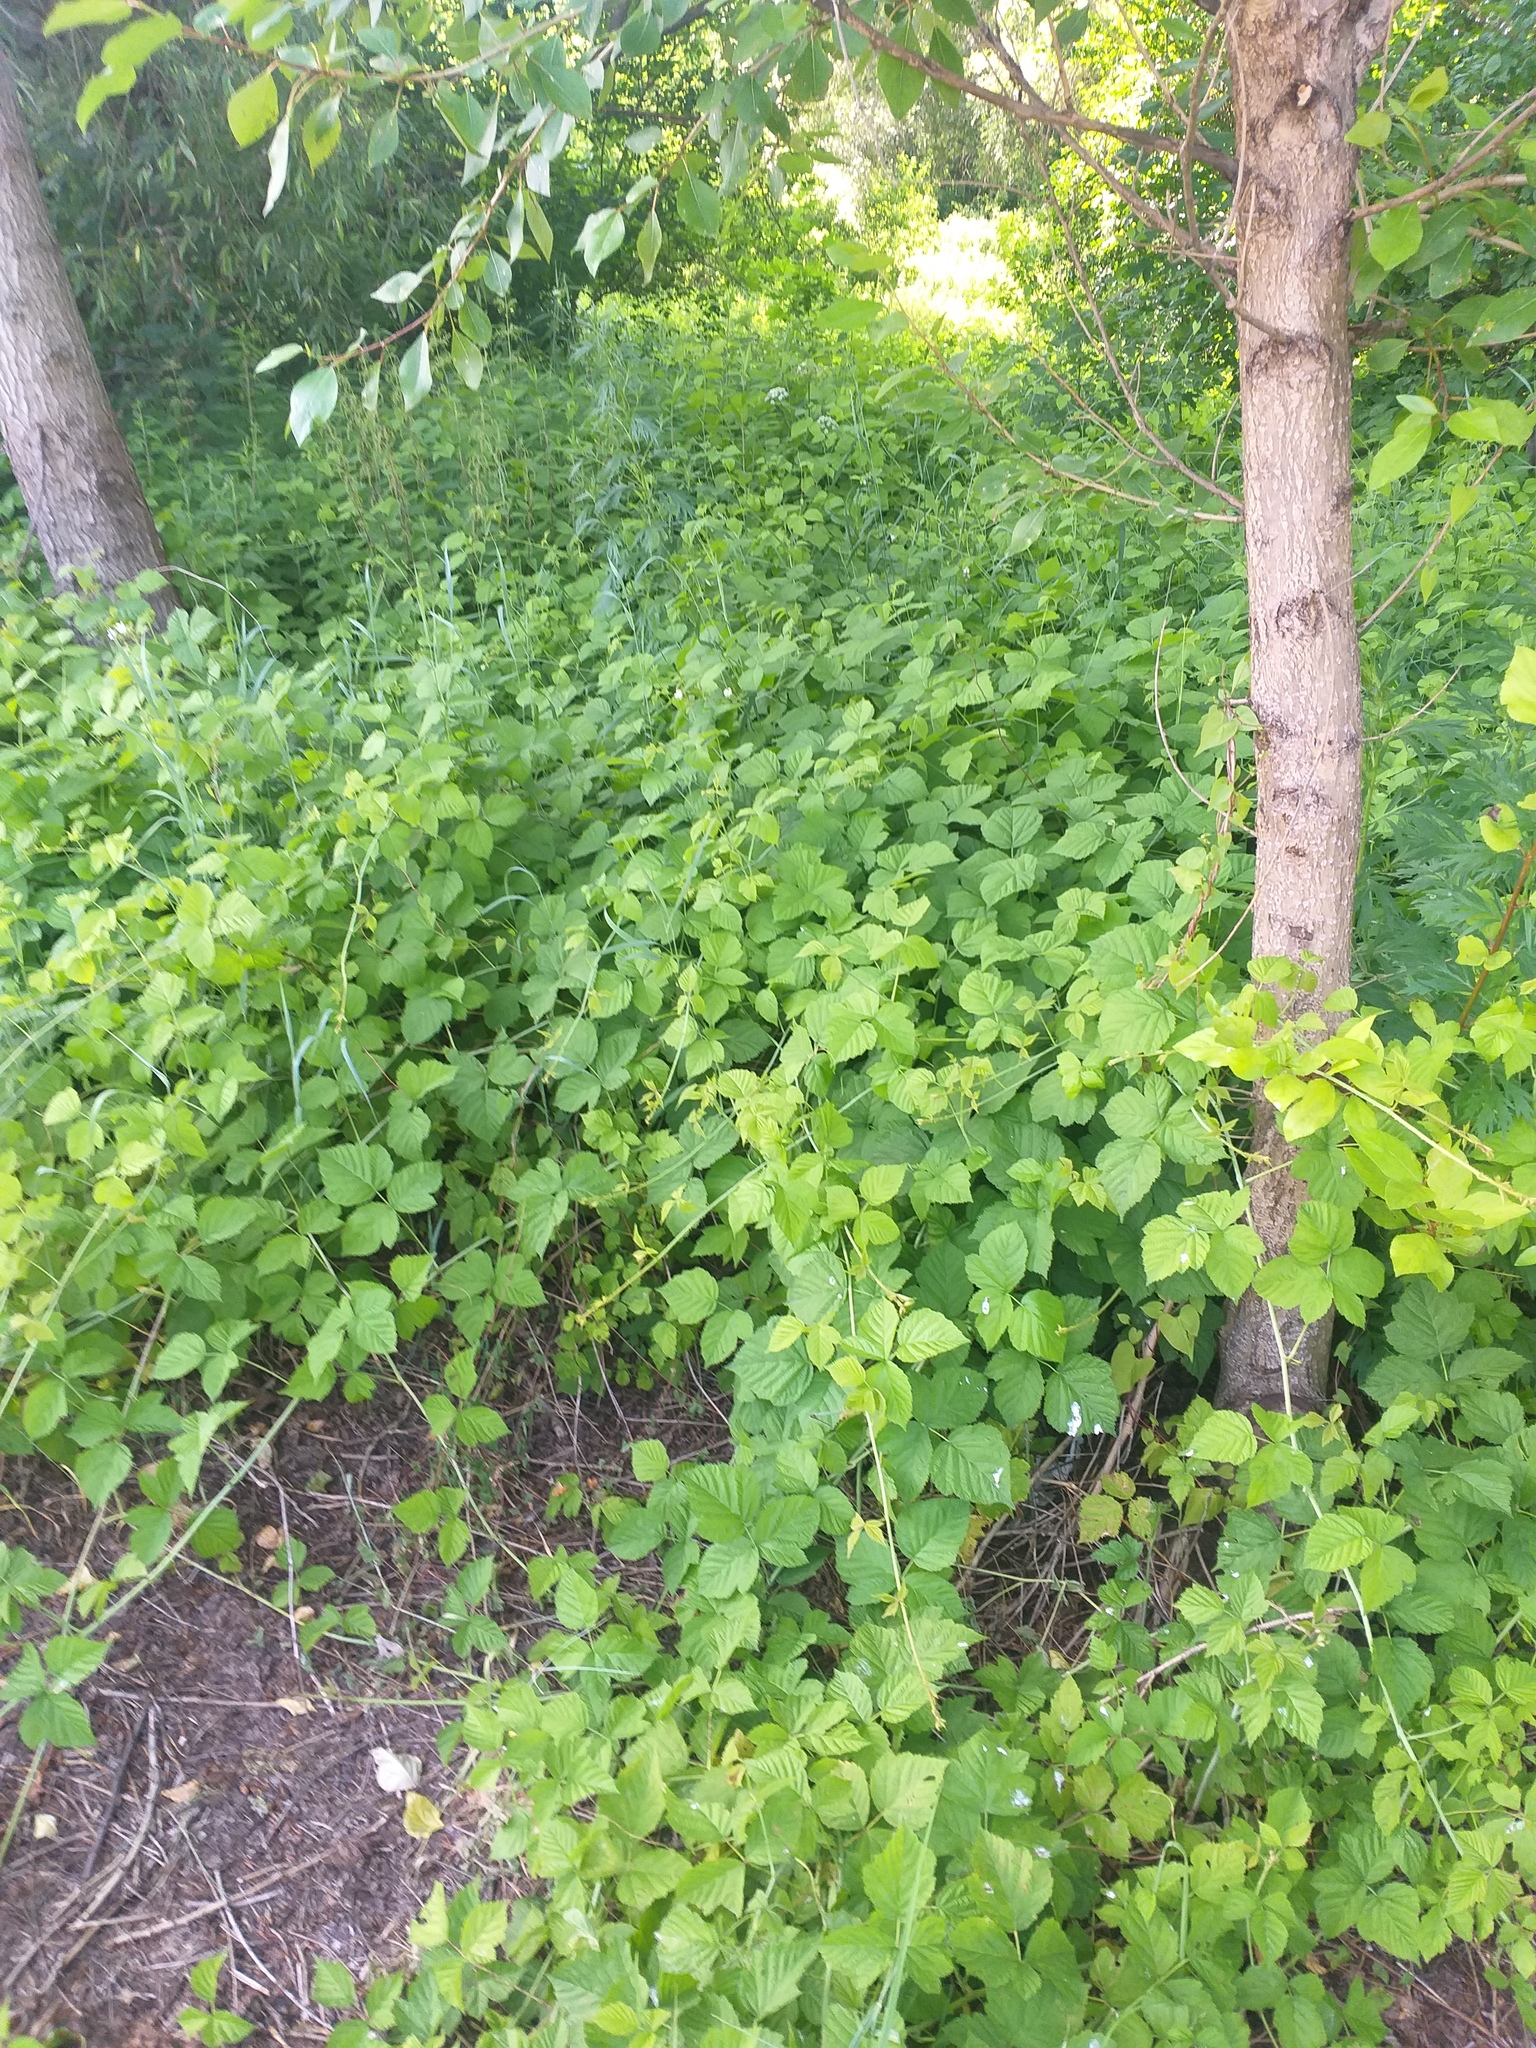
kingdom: Plantae
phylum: Tracheophyta
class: Magnoliopsida
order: Rosales
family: Rosaceae
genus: Rubus
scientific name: Rubus caesius
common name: Dewberry
